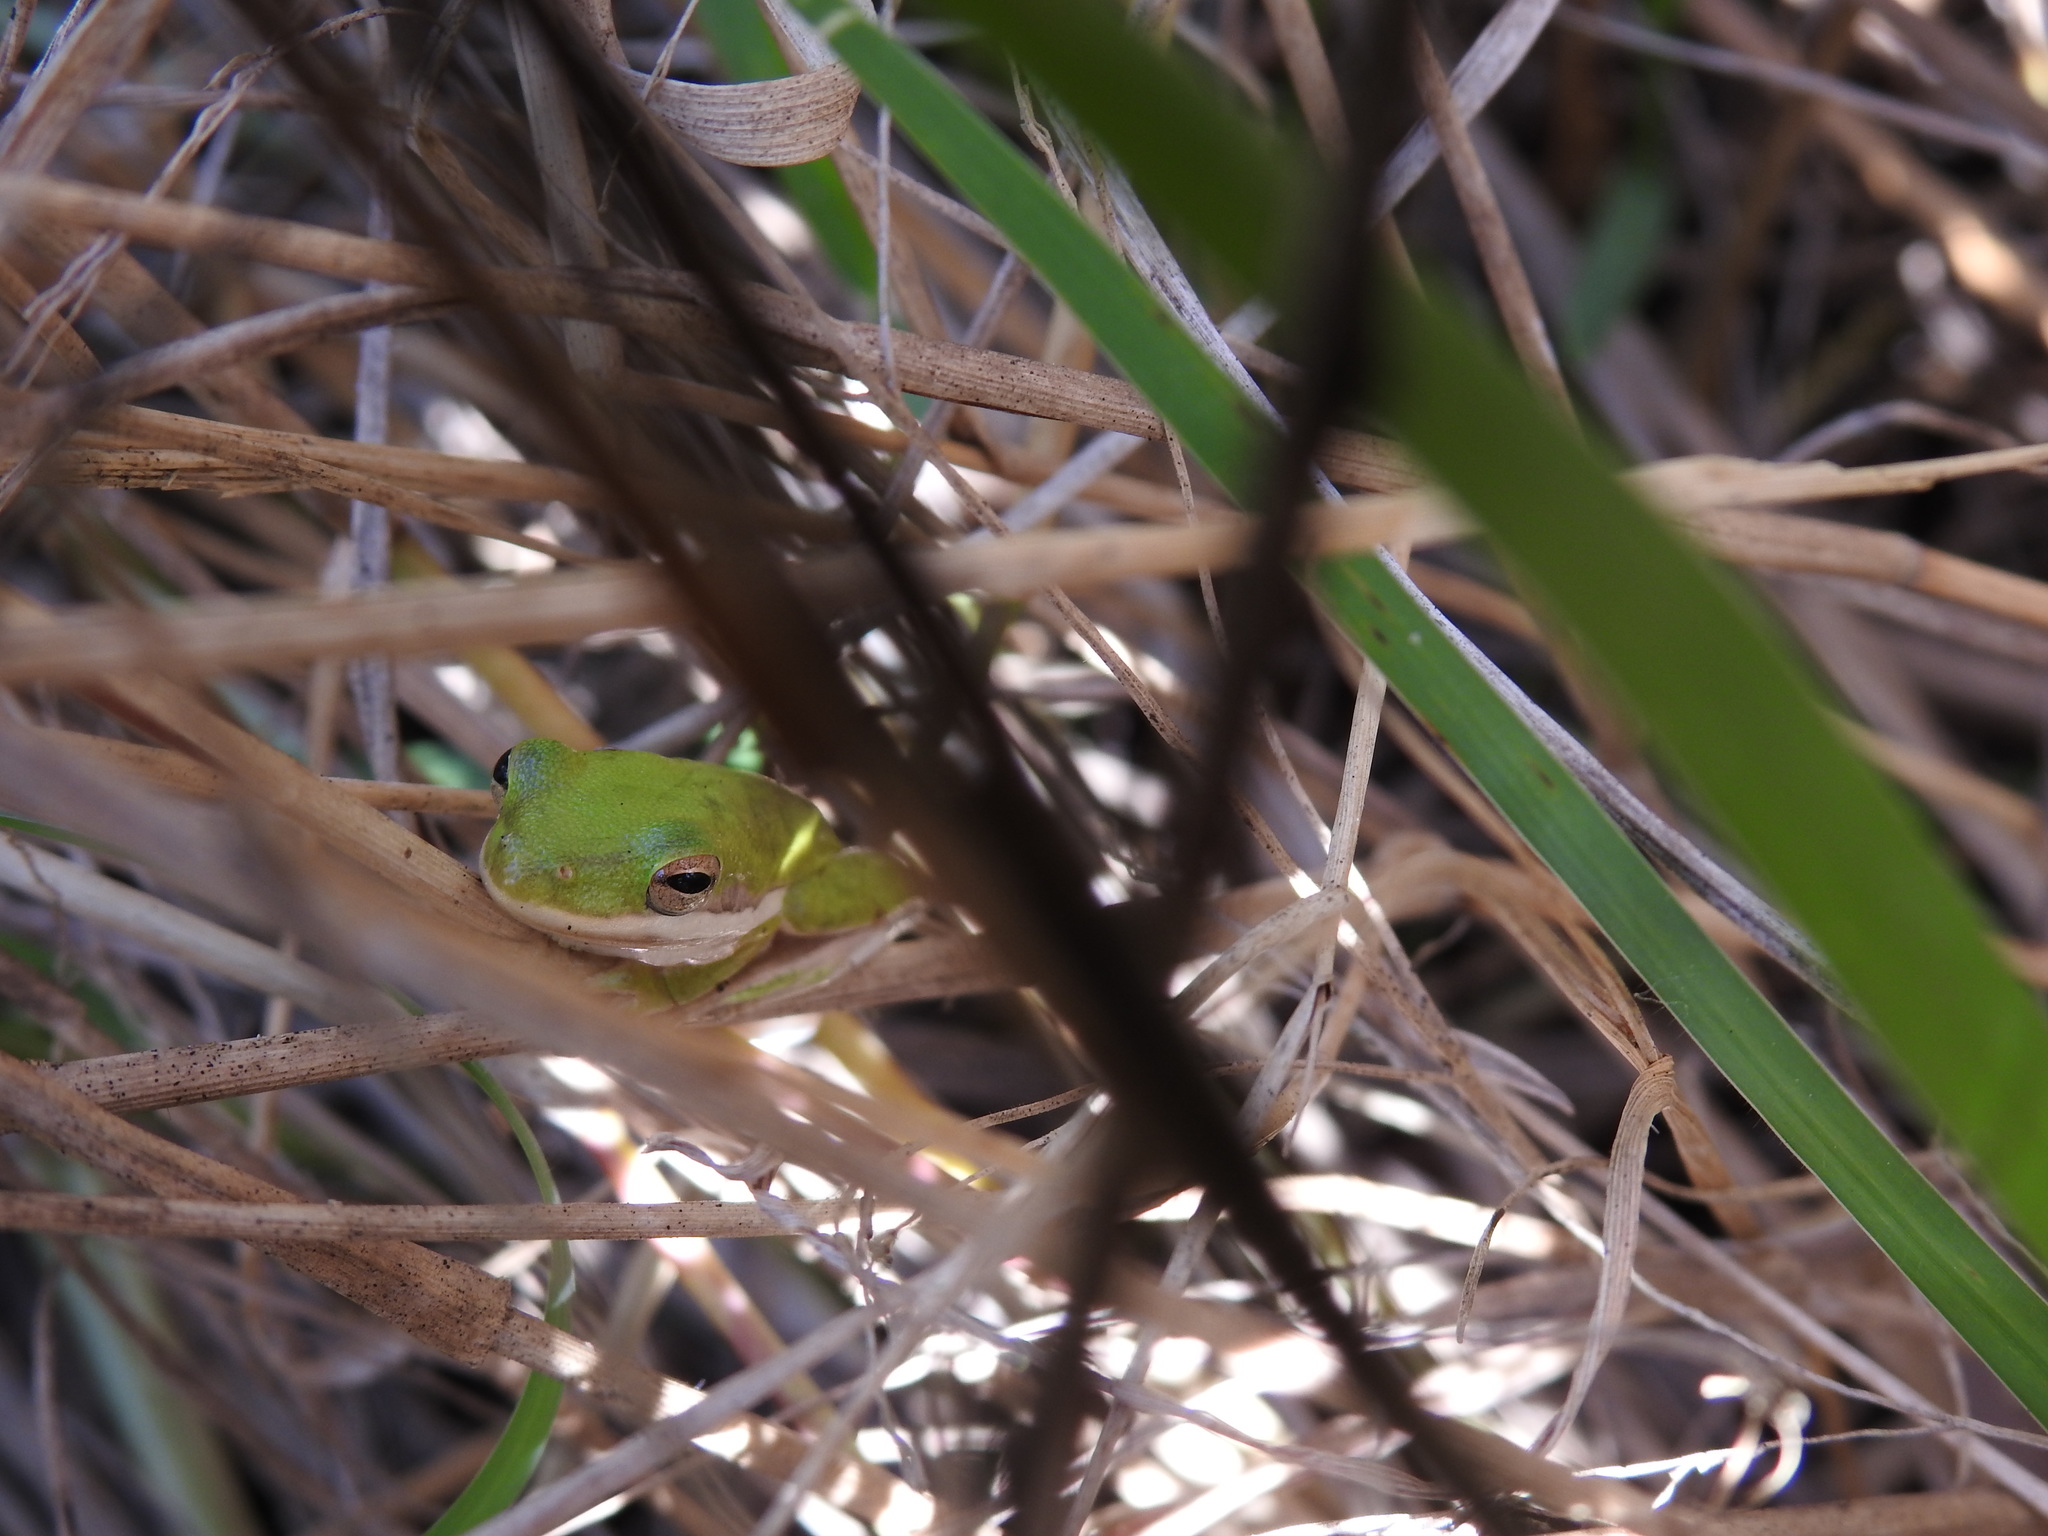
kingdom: Animalia
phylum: Chordata
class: Amphibia
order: Anura
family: Hylidae
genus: Dryophytes
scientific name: Dryophytes cinereus
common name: Green treefrog
